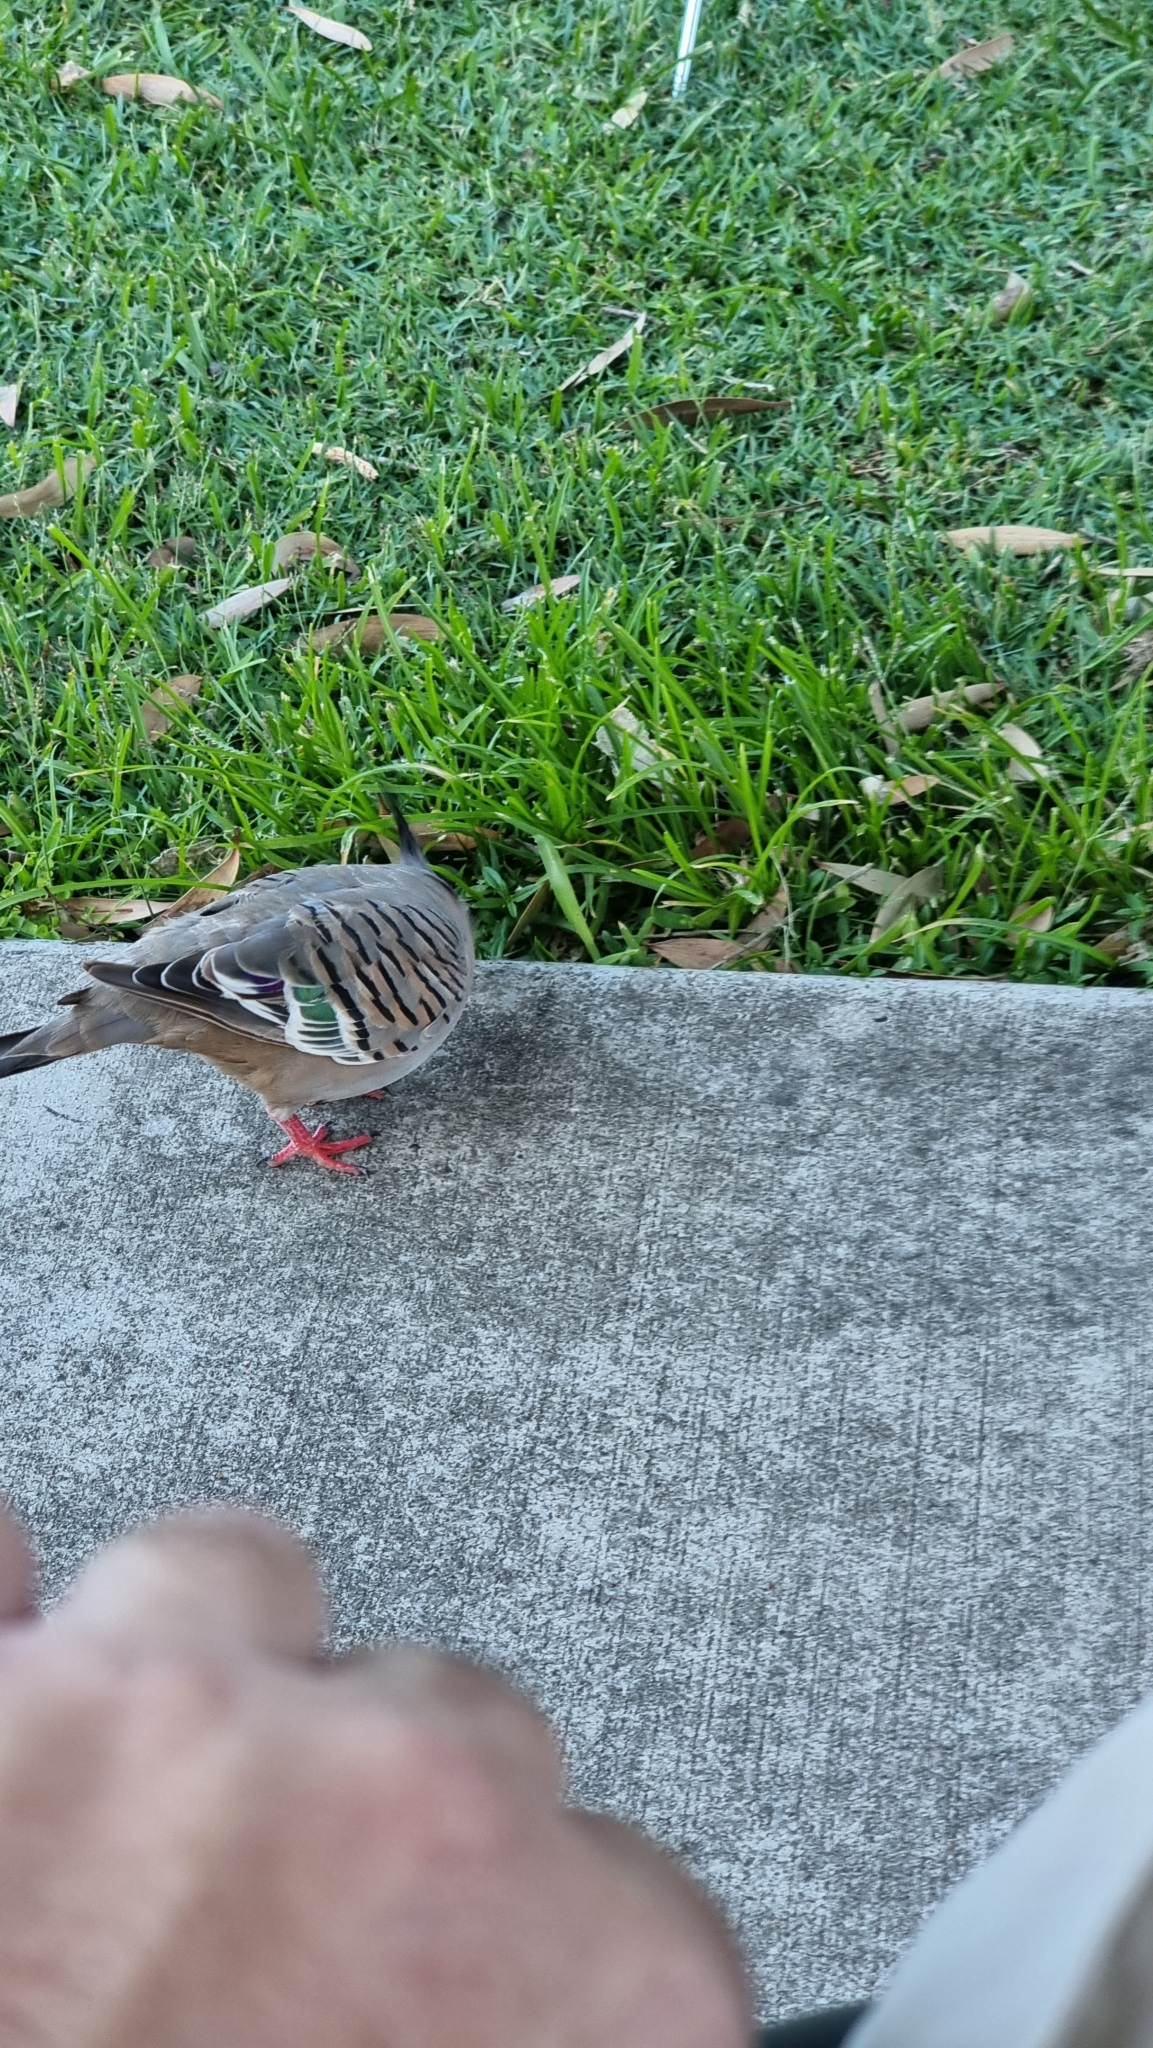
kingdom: Animalia
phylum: Chordata
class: Aves
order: Columbiformes
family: Columbidae
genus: Ocyphaps
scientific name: Ocyphaps lophotes
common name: Crested pigeon
